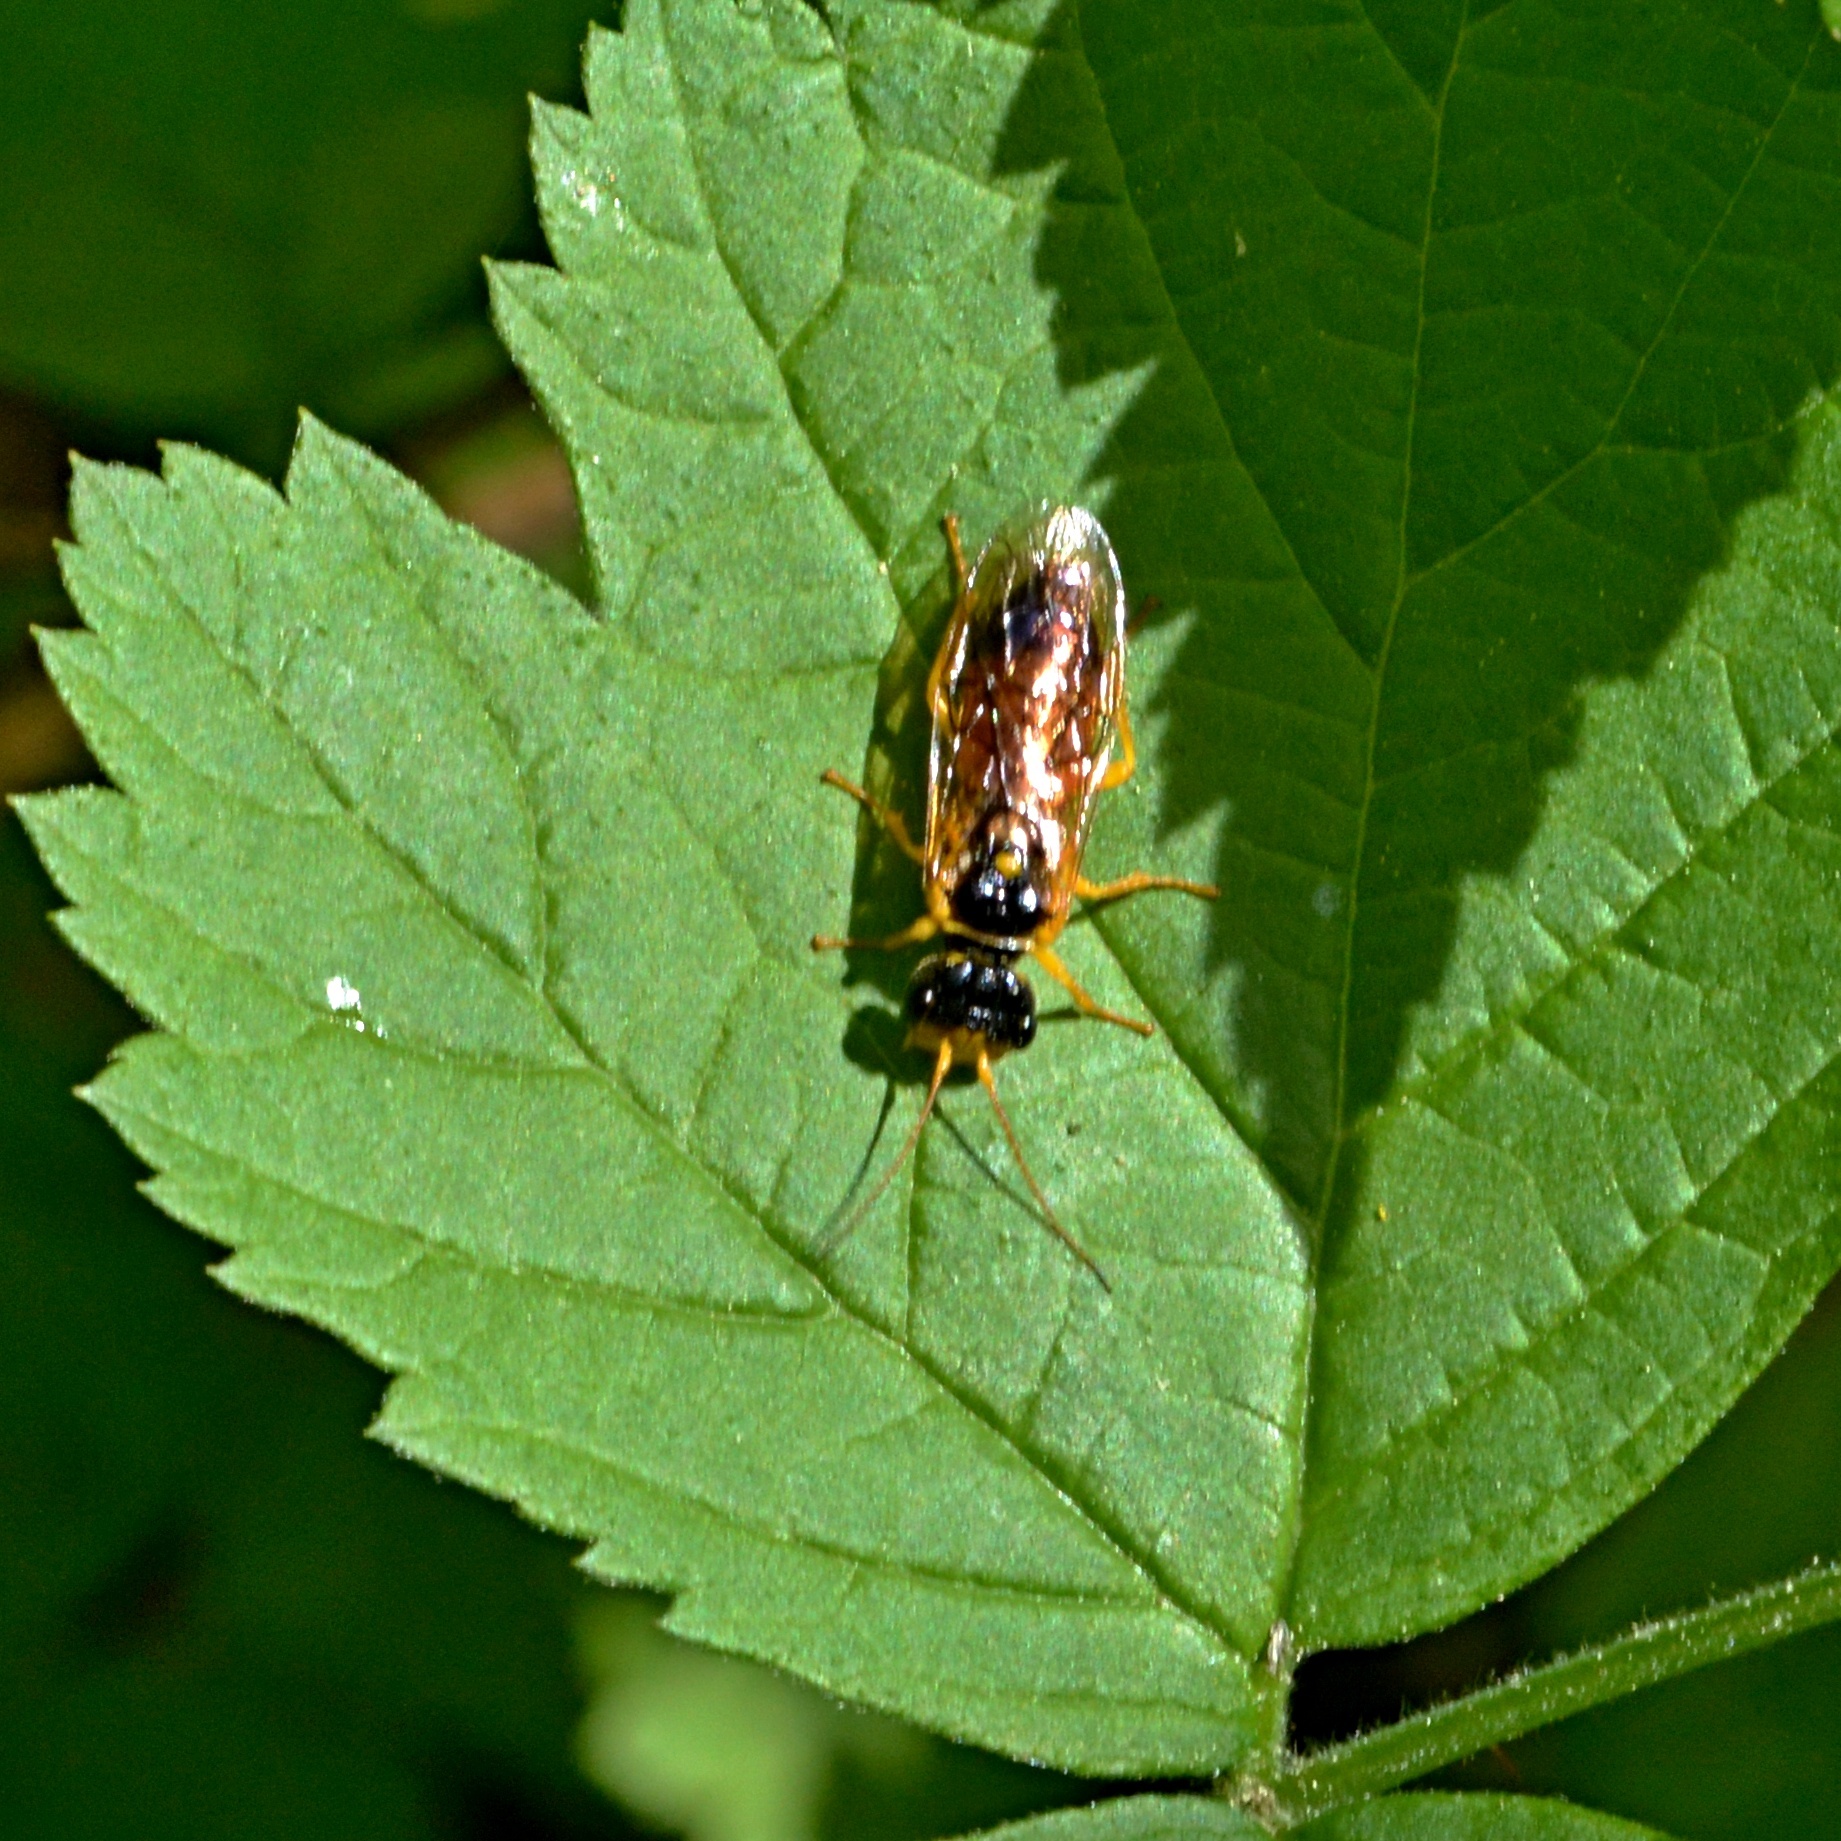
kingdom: Animalia
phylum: Arthropoda
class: Insecta
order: Hymenoptera
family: Pamphiliidae
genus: Pamphilius
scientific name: Pamphilius aurantiacus
